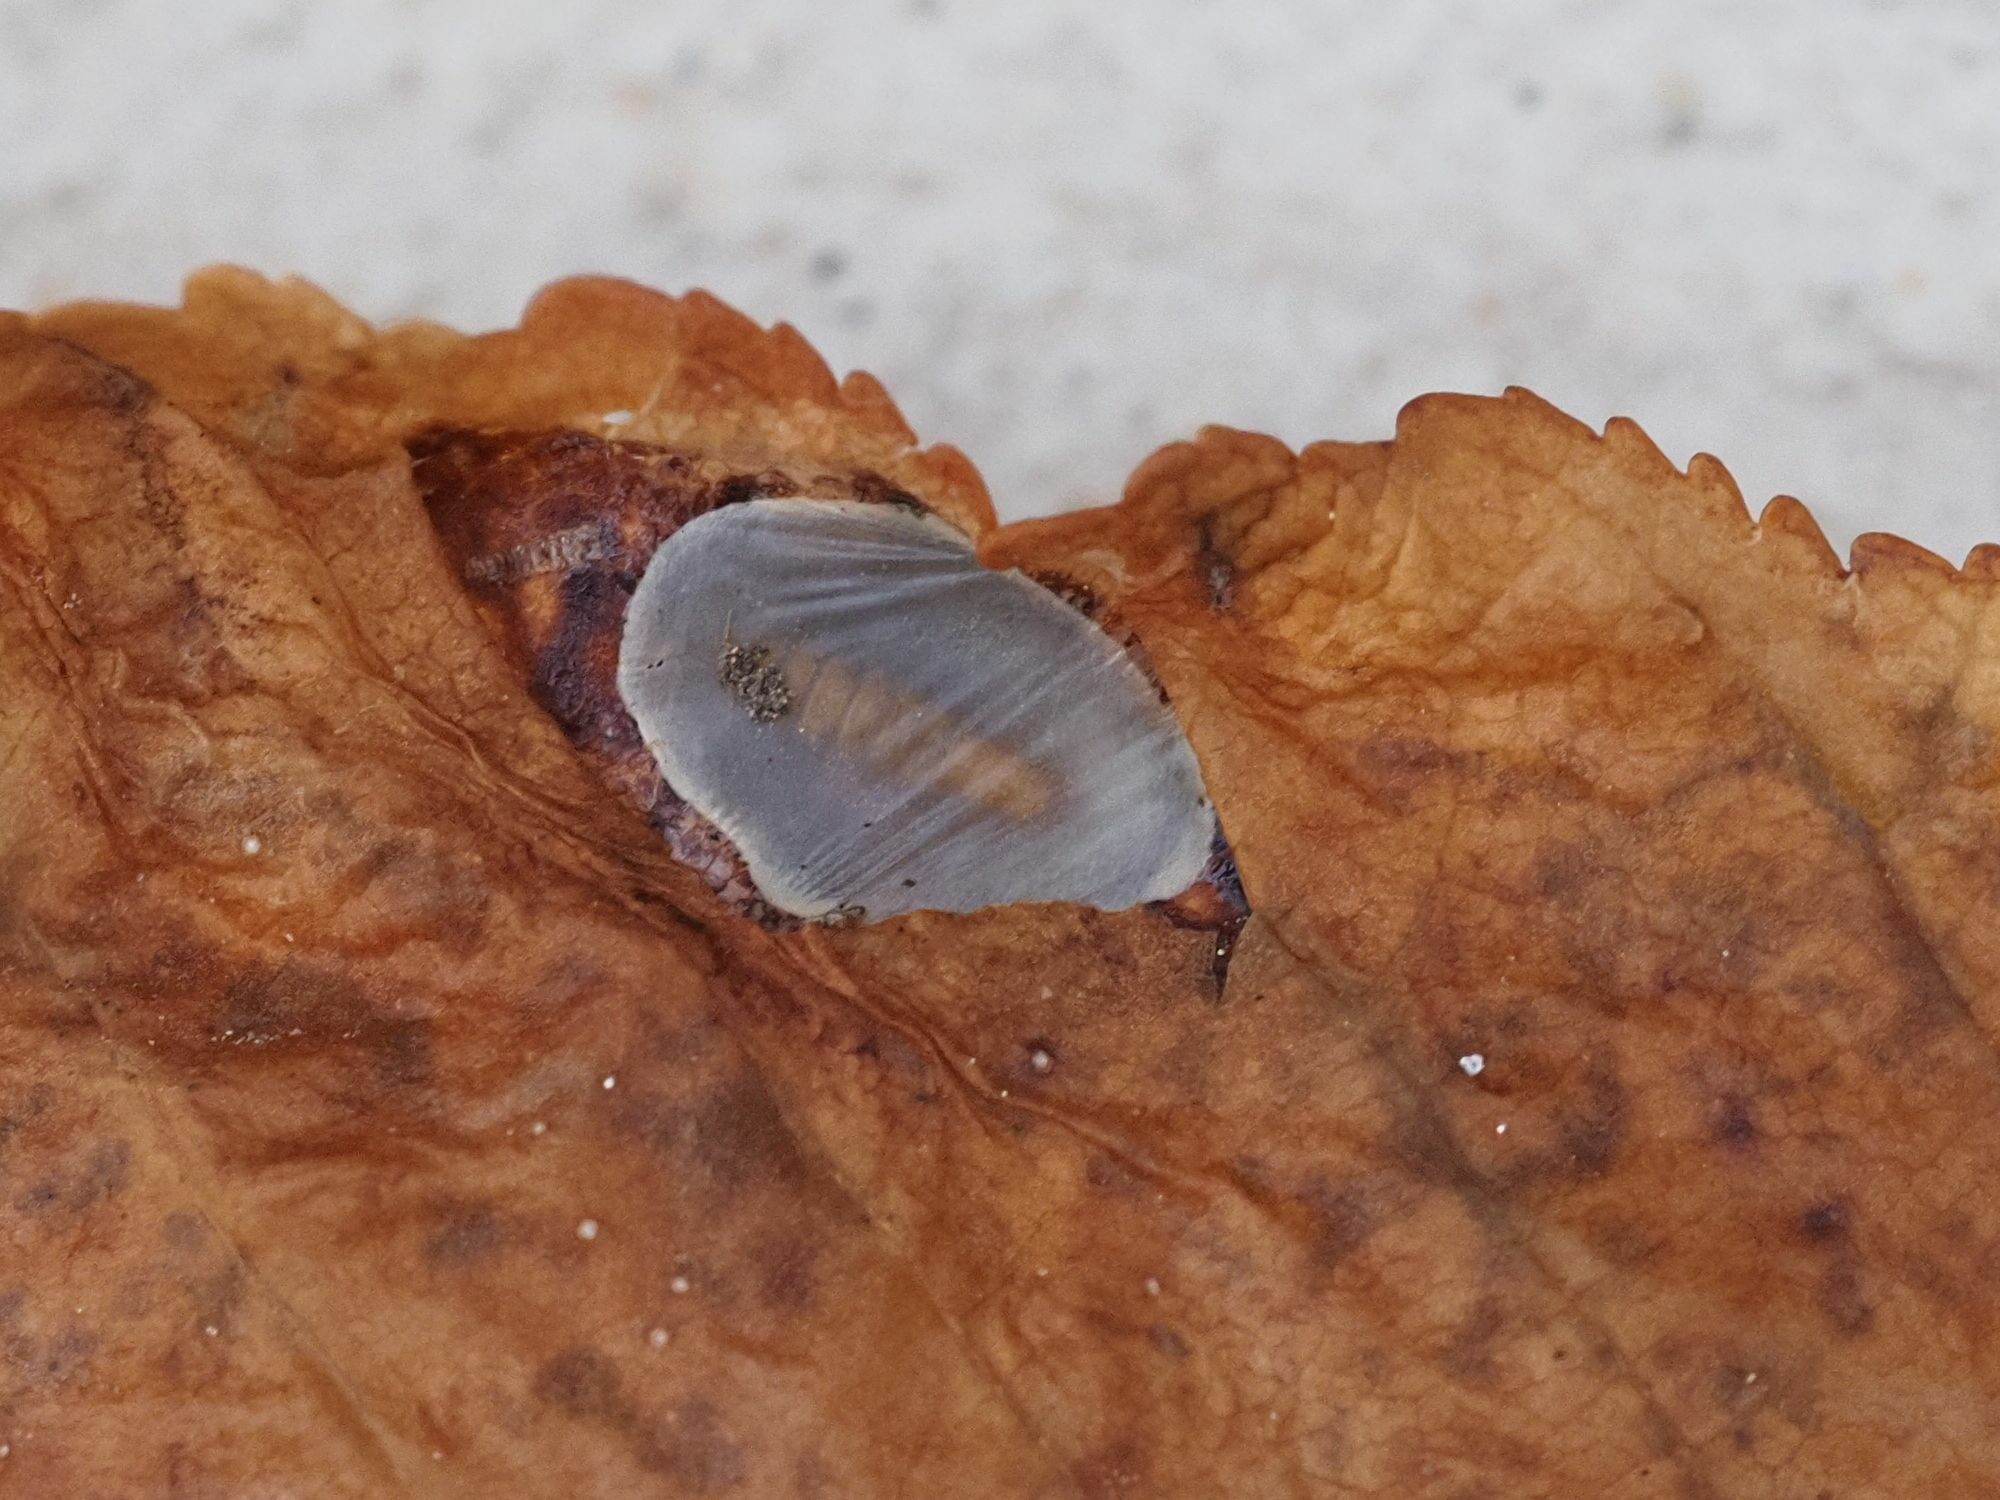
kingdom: Animalia
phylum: Arthropoda
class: Insecta
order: Lepidoptera
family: Gracillariidae
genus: Cameraria
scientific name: Cameraria ohridella
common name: Horse-chestnut leaf-miner
